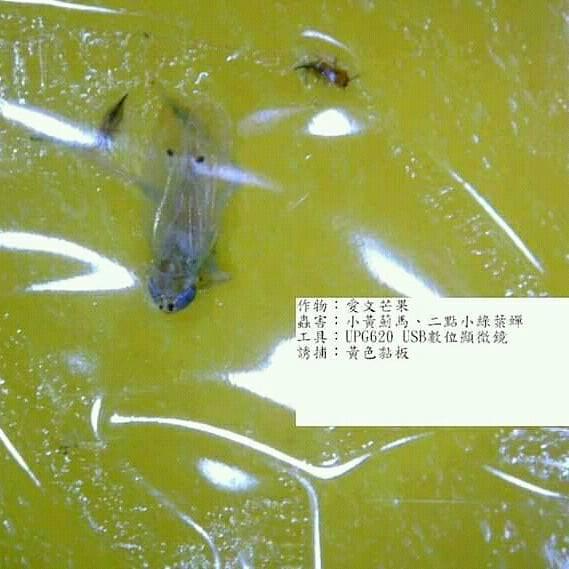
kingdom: Animalia
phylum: Arthropoda
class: Insecta
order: Hemiptera
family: Cicadellidae
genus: Amrasca
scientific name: Amrasca biguttula
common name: Indian cotton jassid
